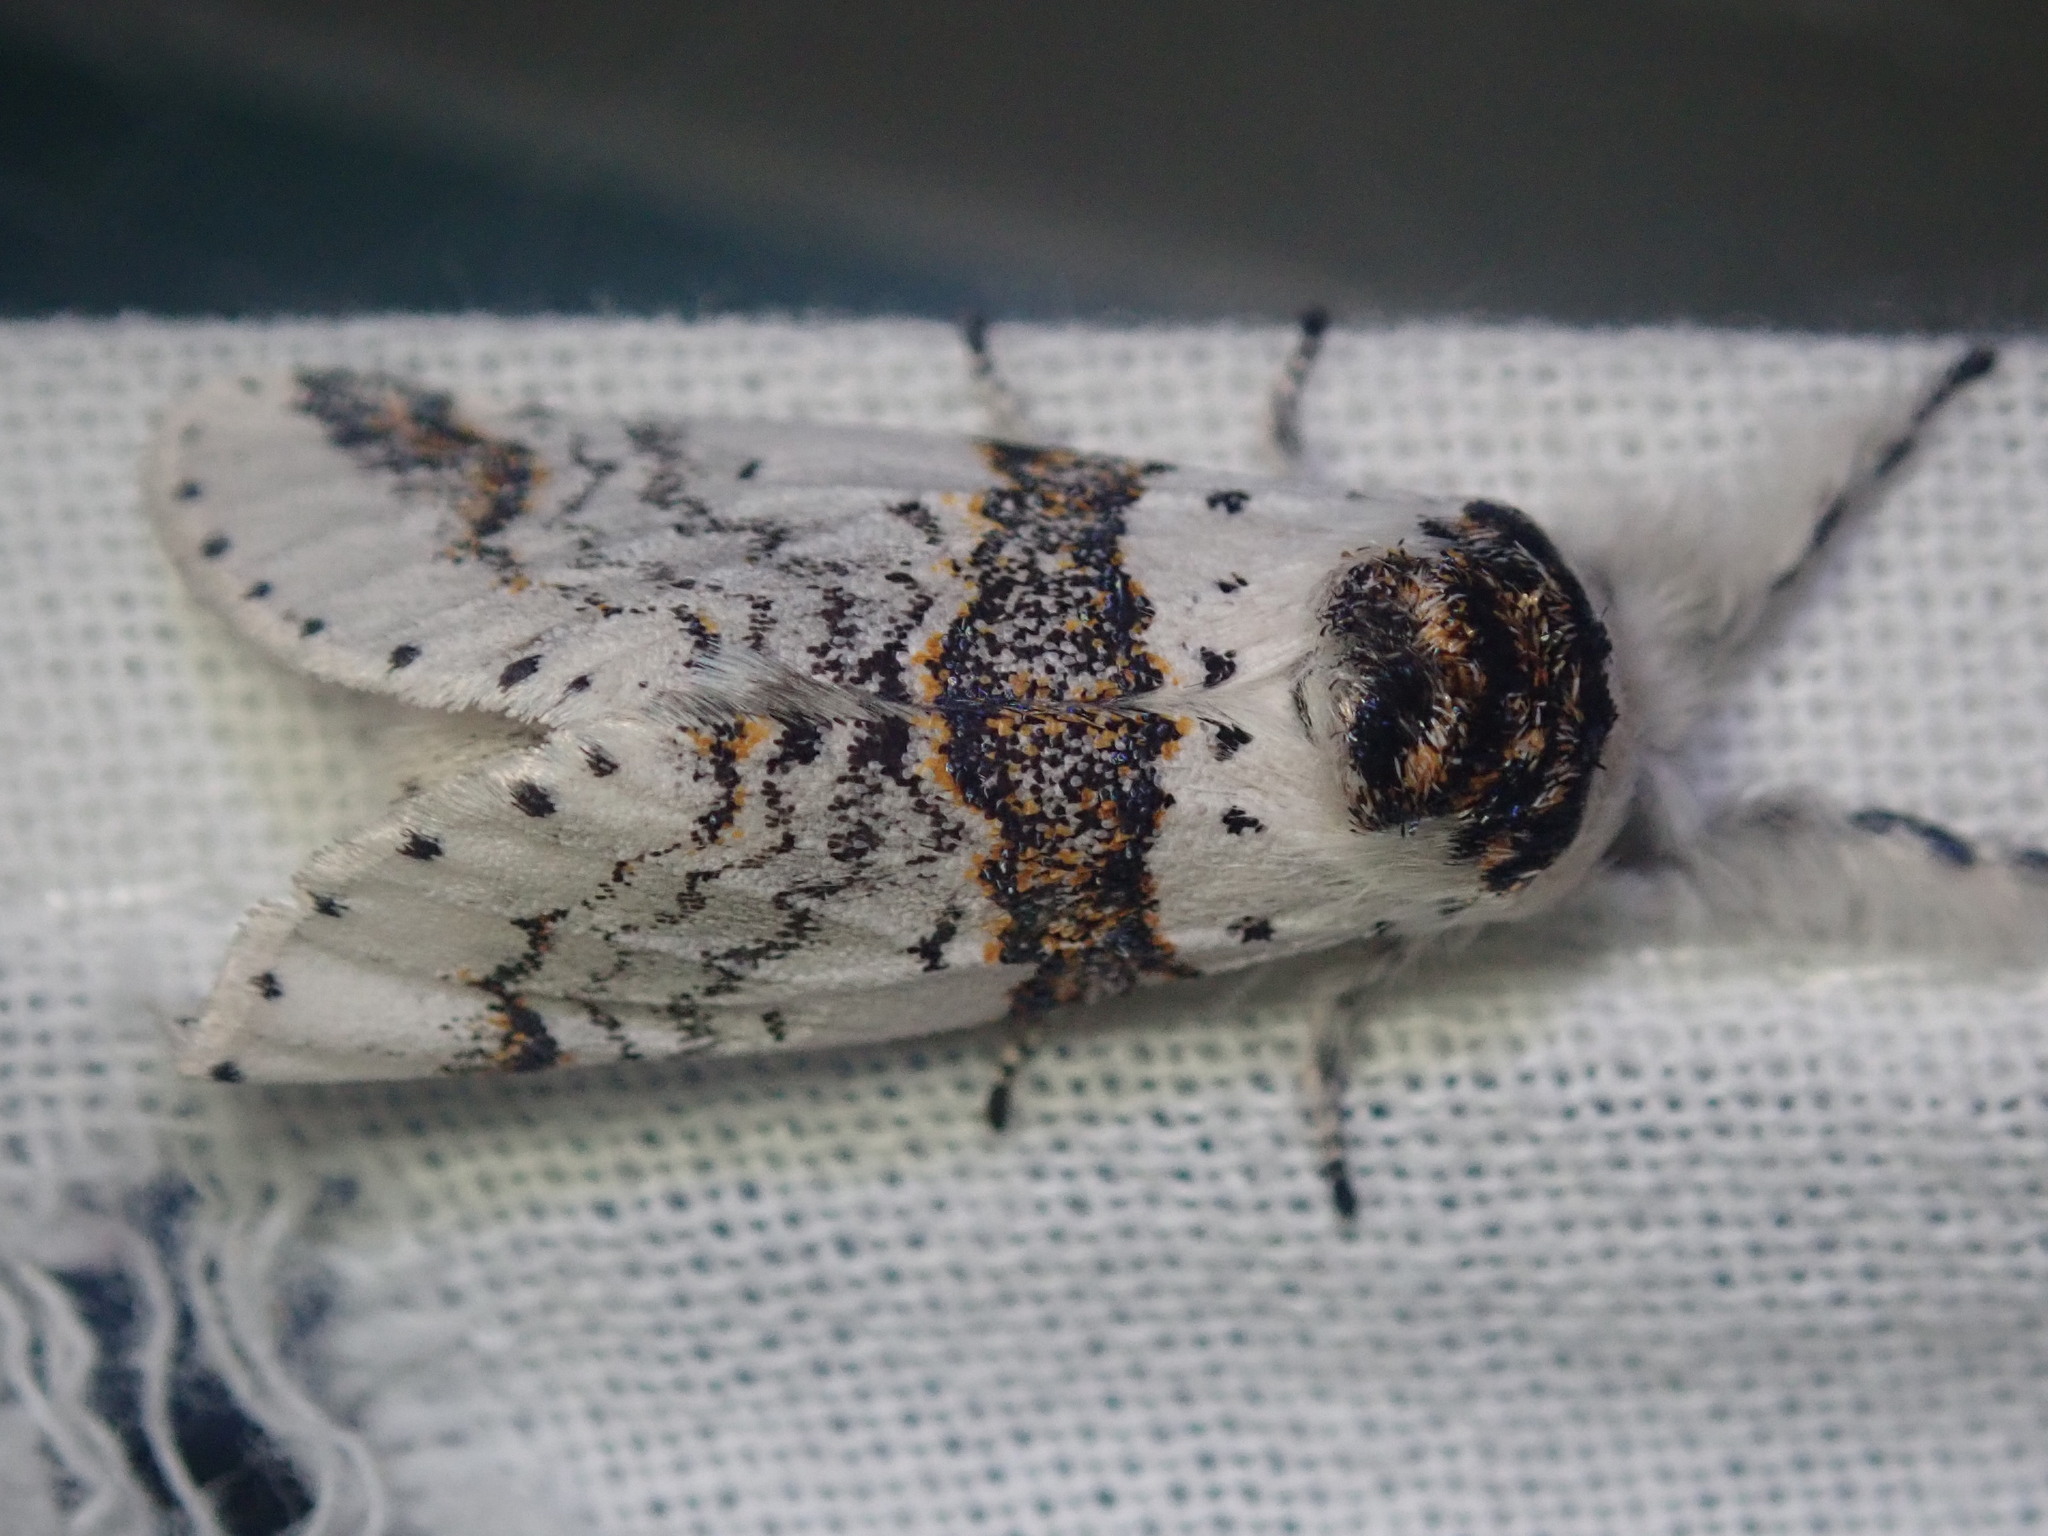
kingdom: Animalia
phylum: Arthropoda
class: Insecta
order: Lepidoptera
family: Notodontidae
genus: Furcula
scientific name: Furcula scolopendrina
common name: Zigzag furcula moth
